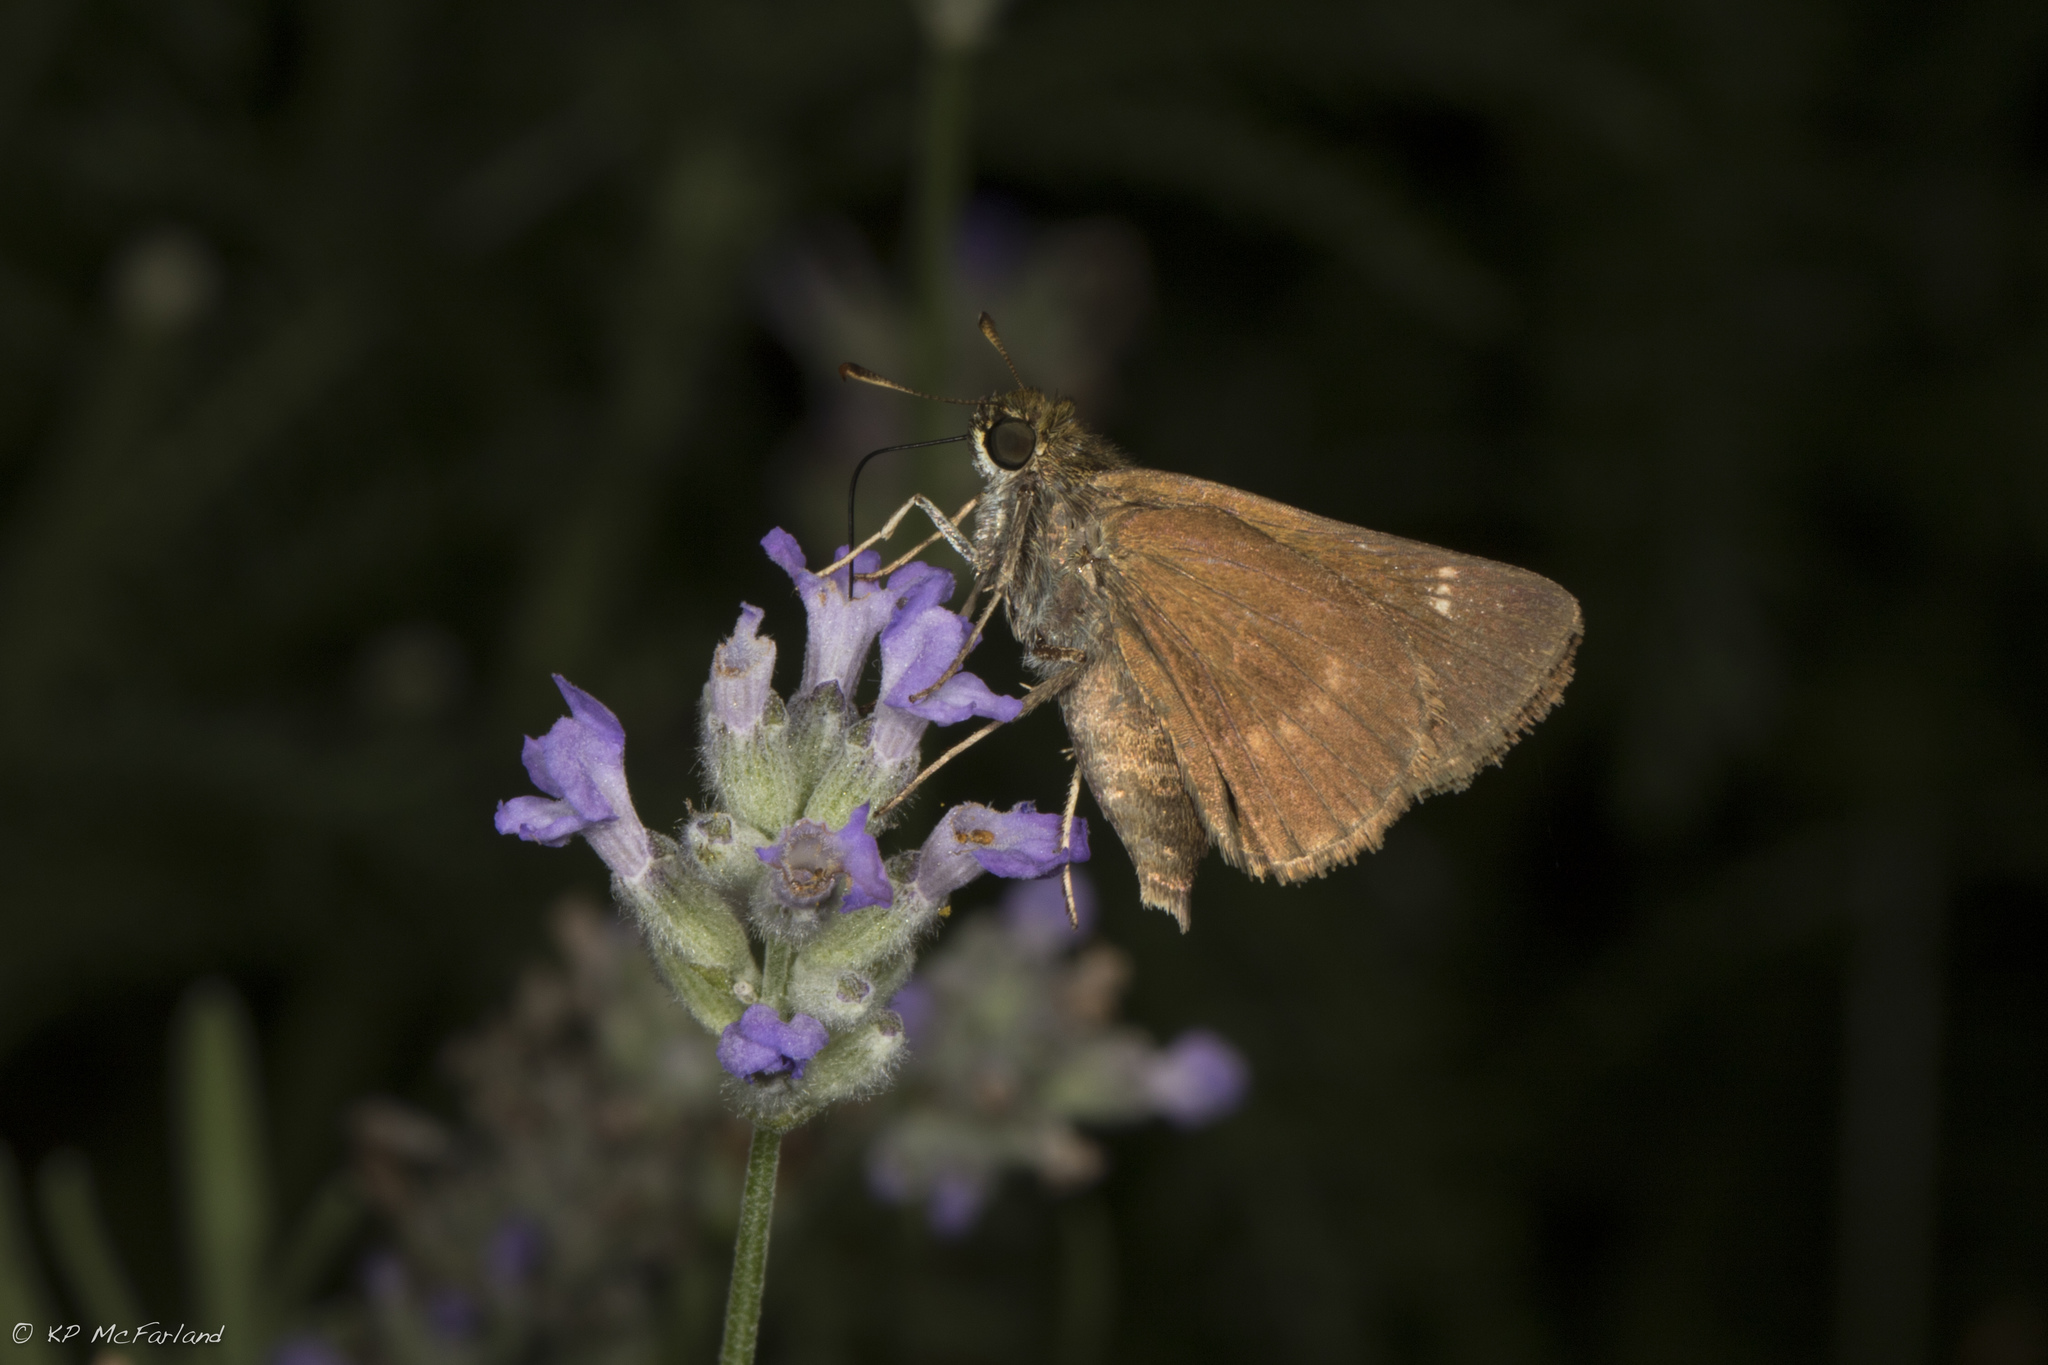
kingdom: Animalia
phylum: Arthropoda
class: Insecta
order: Lepidoptera
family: Hesperiidae
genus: Euphyes
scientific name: Euphyes vestris
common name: Dun skipper
